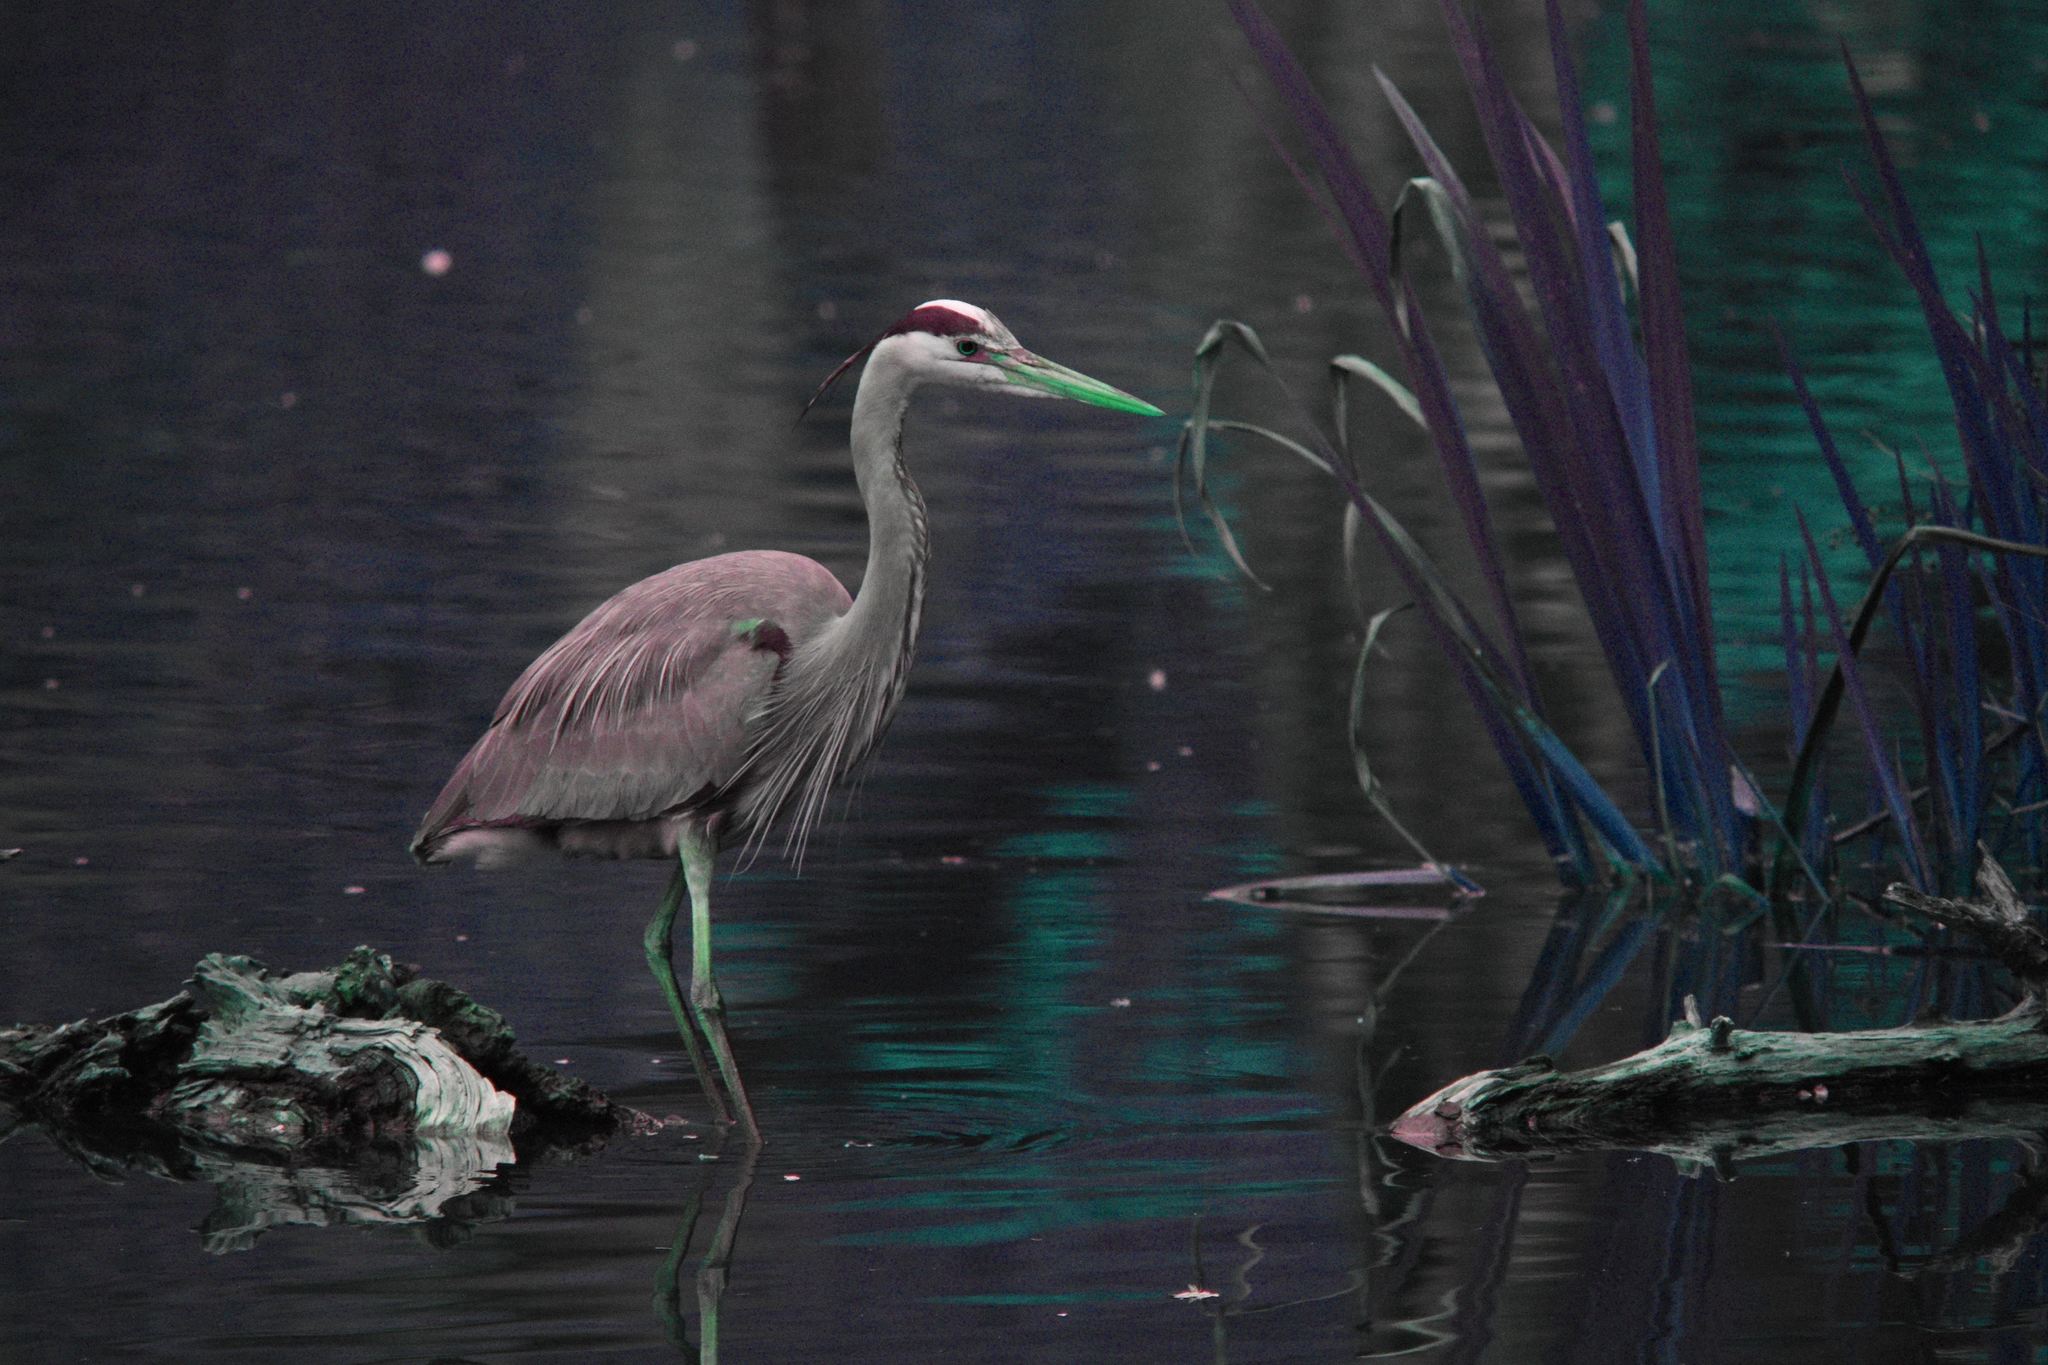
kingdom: Animalia
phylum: Chordata
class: Aves
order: Pelecaniformes
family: Ardeidae
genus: Ardea
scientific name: Ardea herodias
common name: Great blue heron
